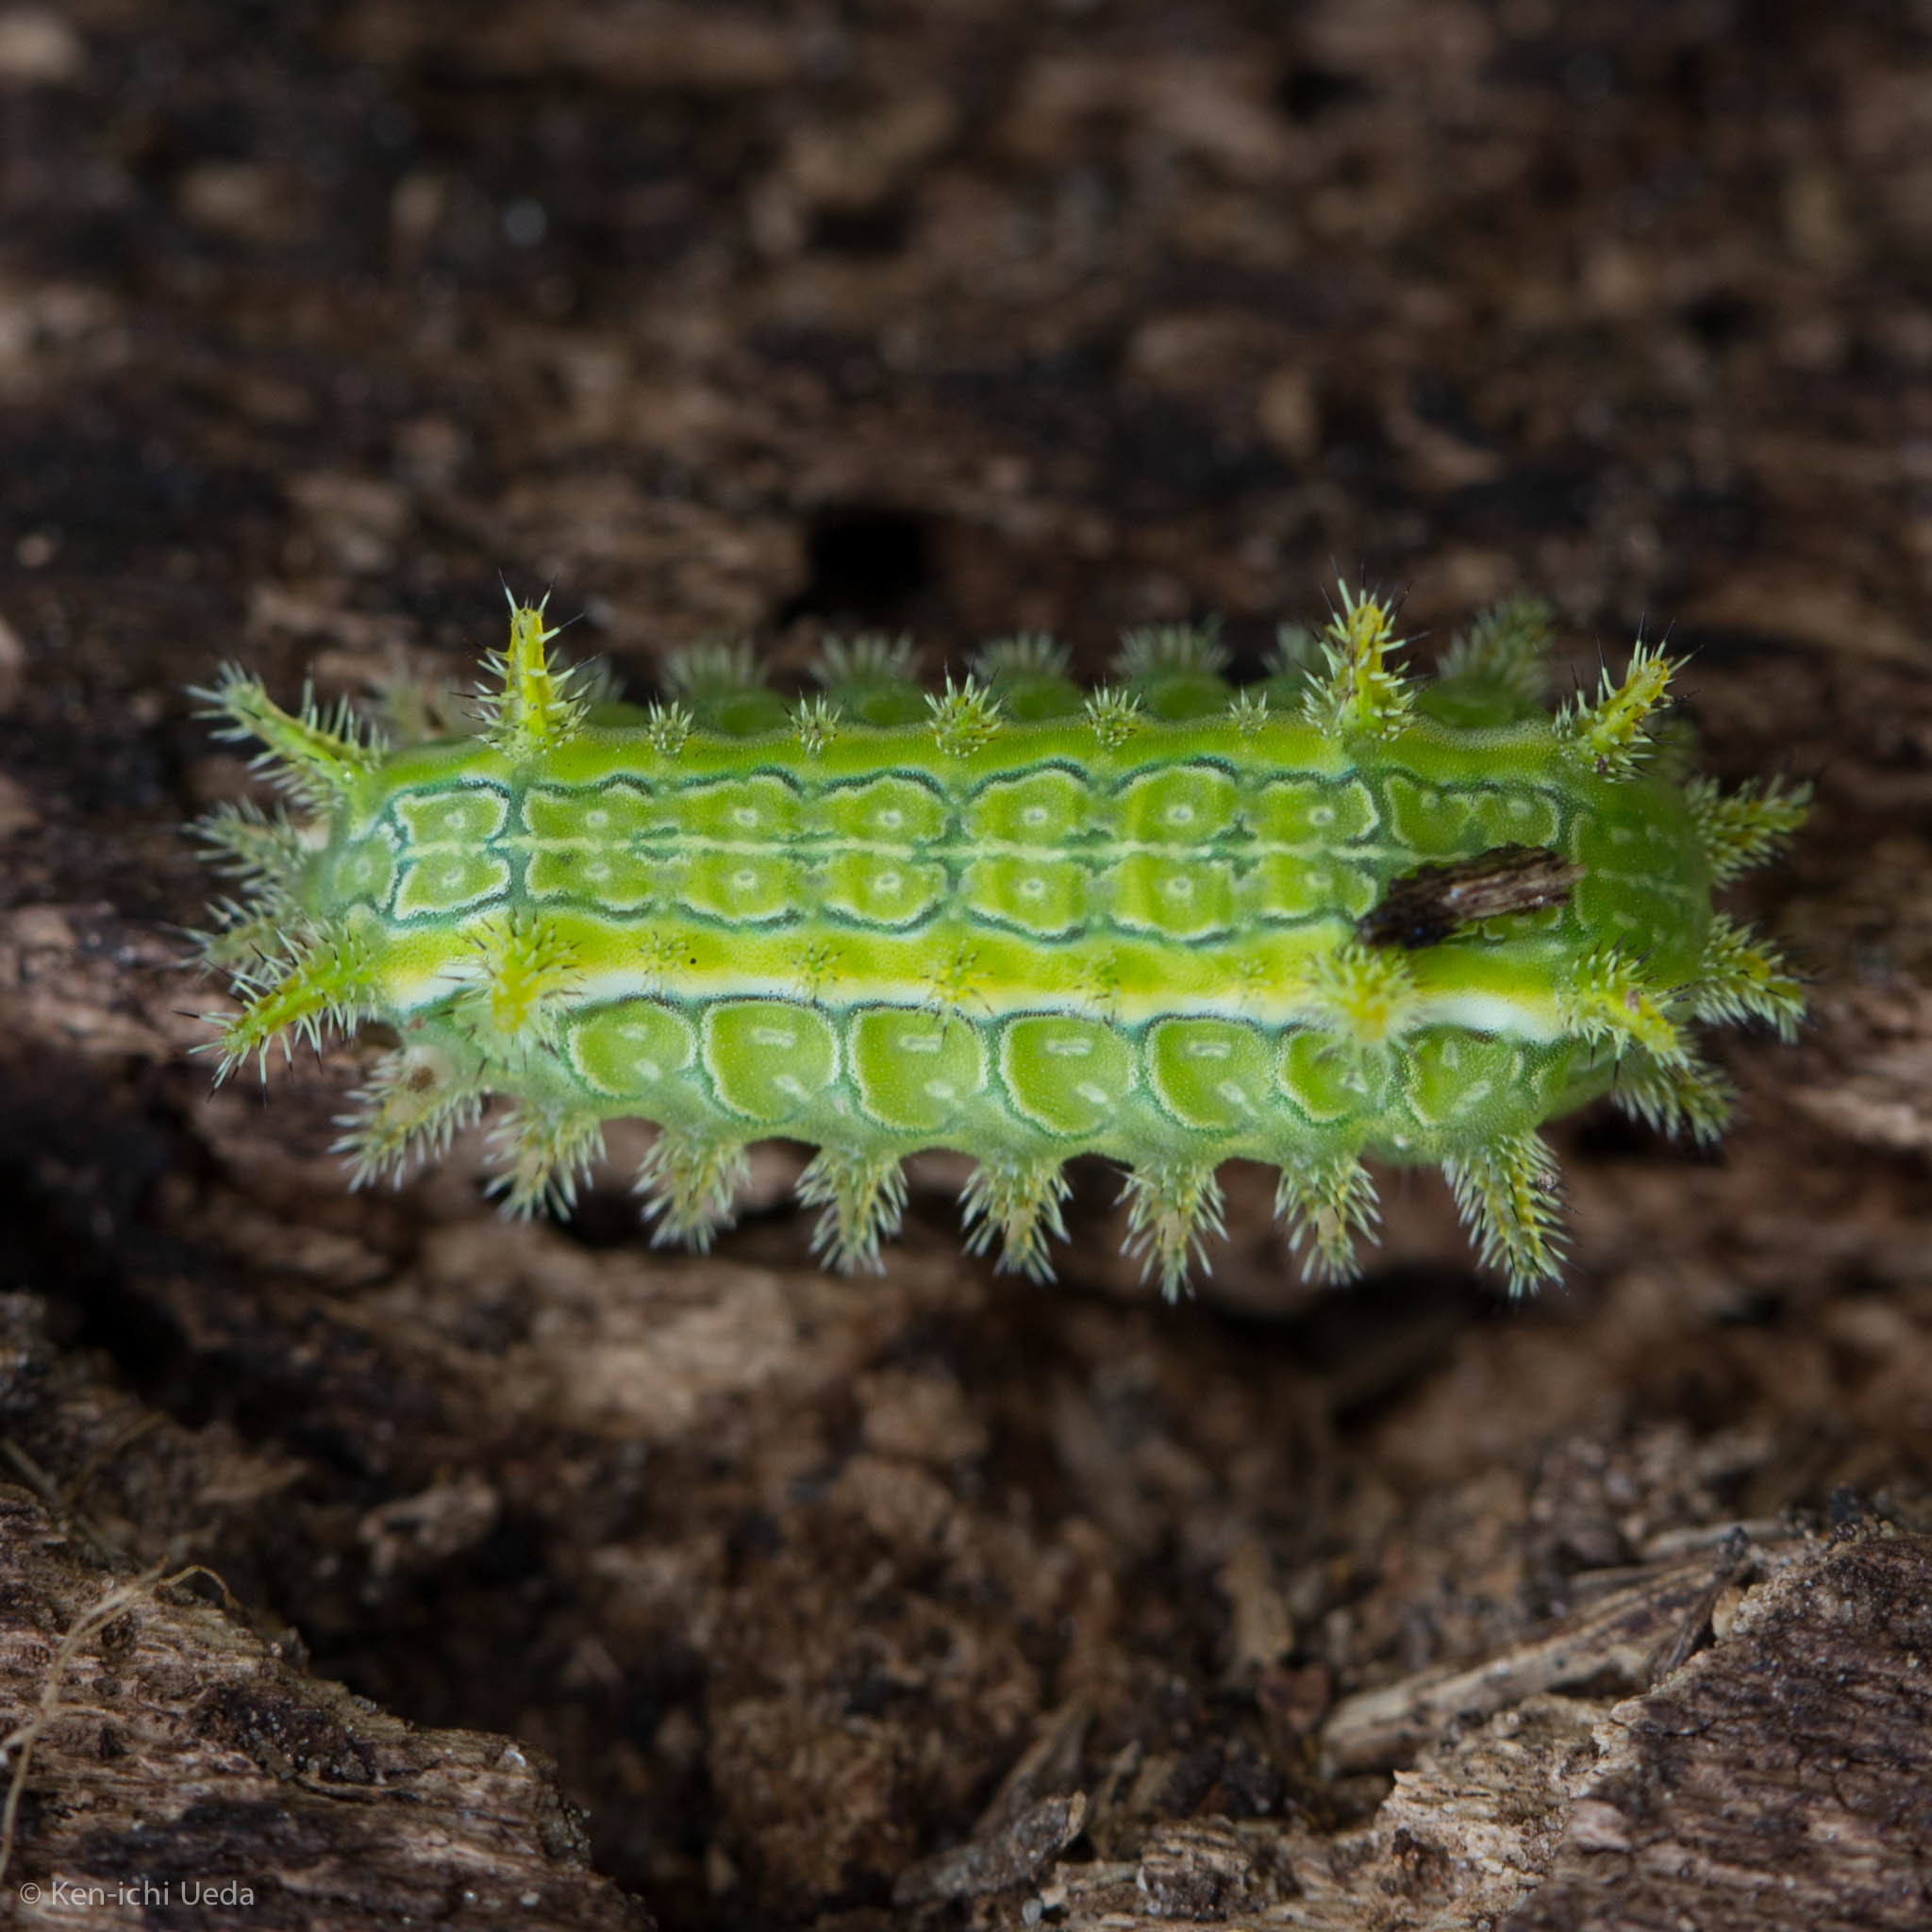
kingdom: Animalia
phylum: Arthropoda
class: Insecta
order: Lepidoptera
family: Limacodidae
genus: Euclea
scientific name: Euclea incisa
